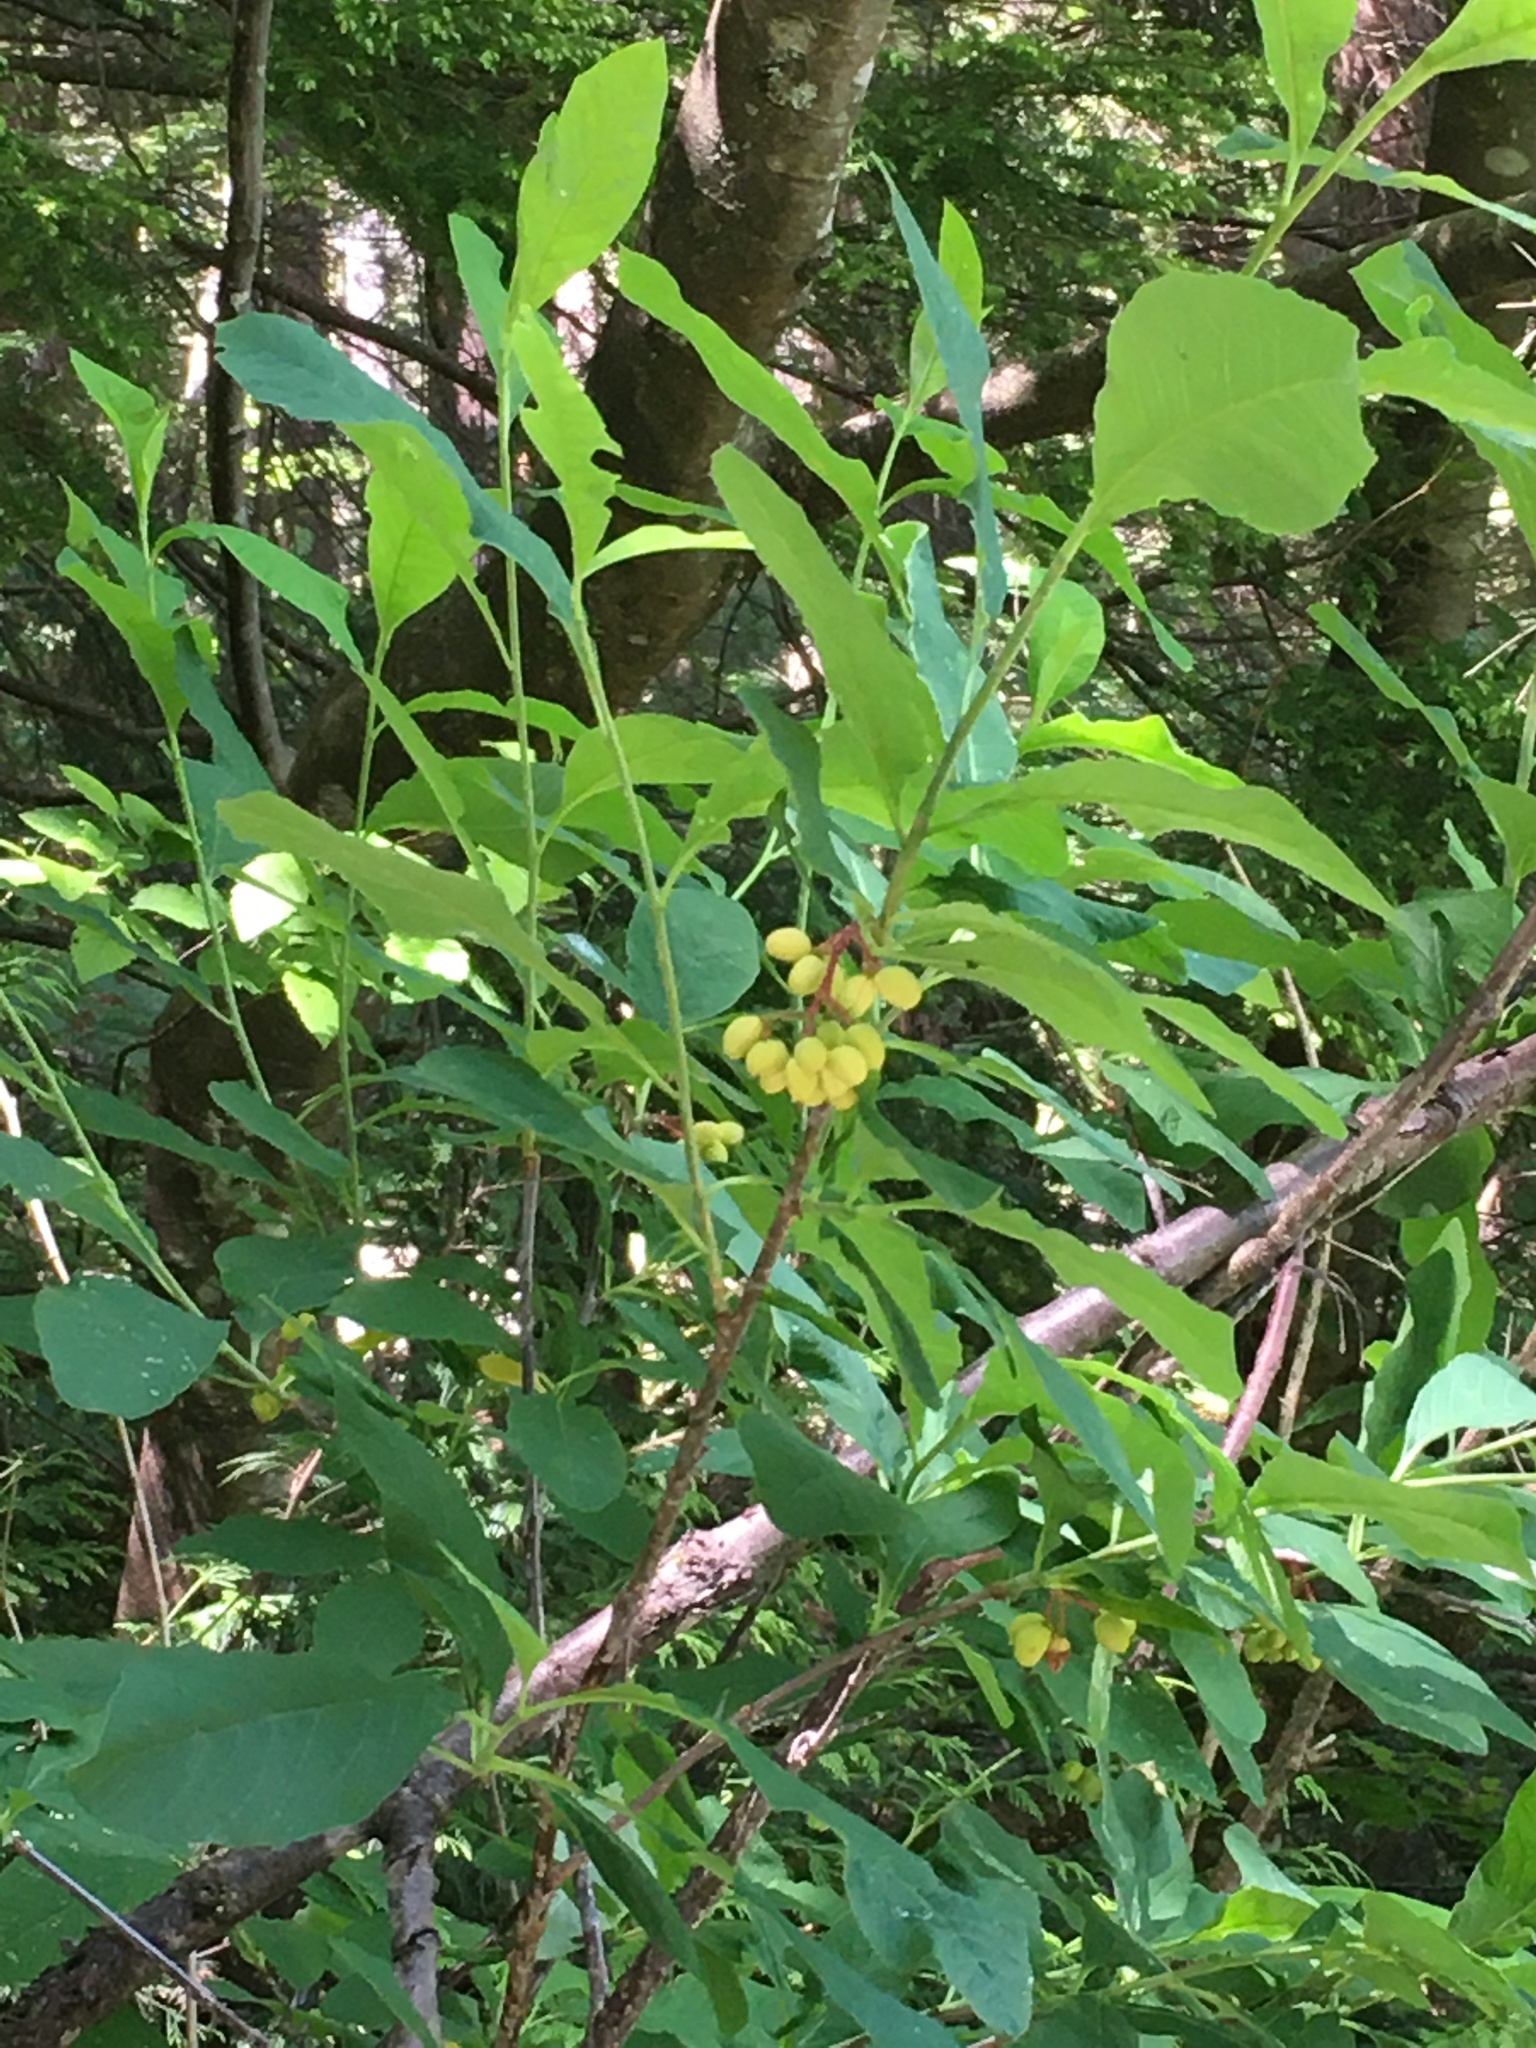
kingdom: Plantae
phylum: Tracheophyta
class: Magnoliopsida
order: Rosales
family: Rosaceae
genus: Oemleria
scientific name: Oemleria cerasiformis
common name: Osoberry
